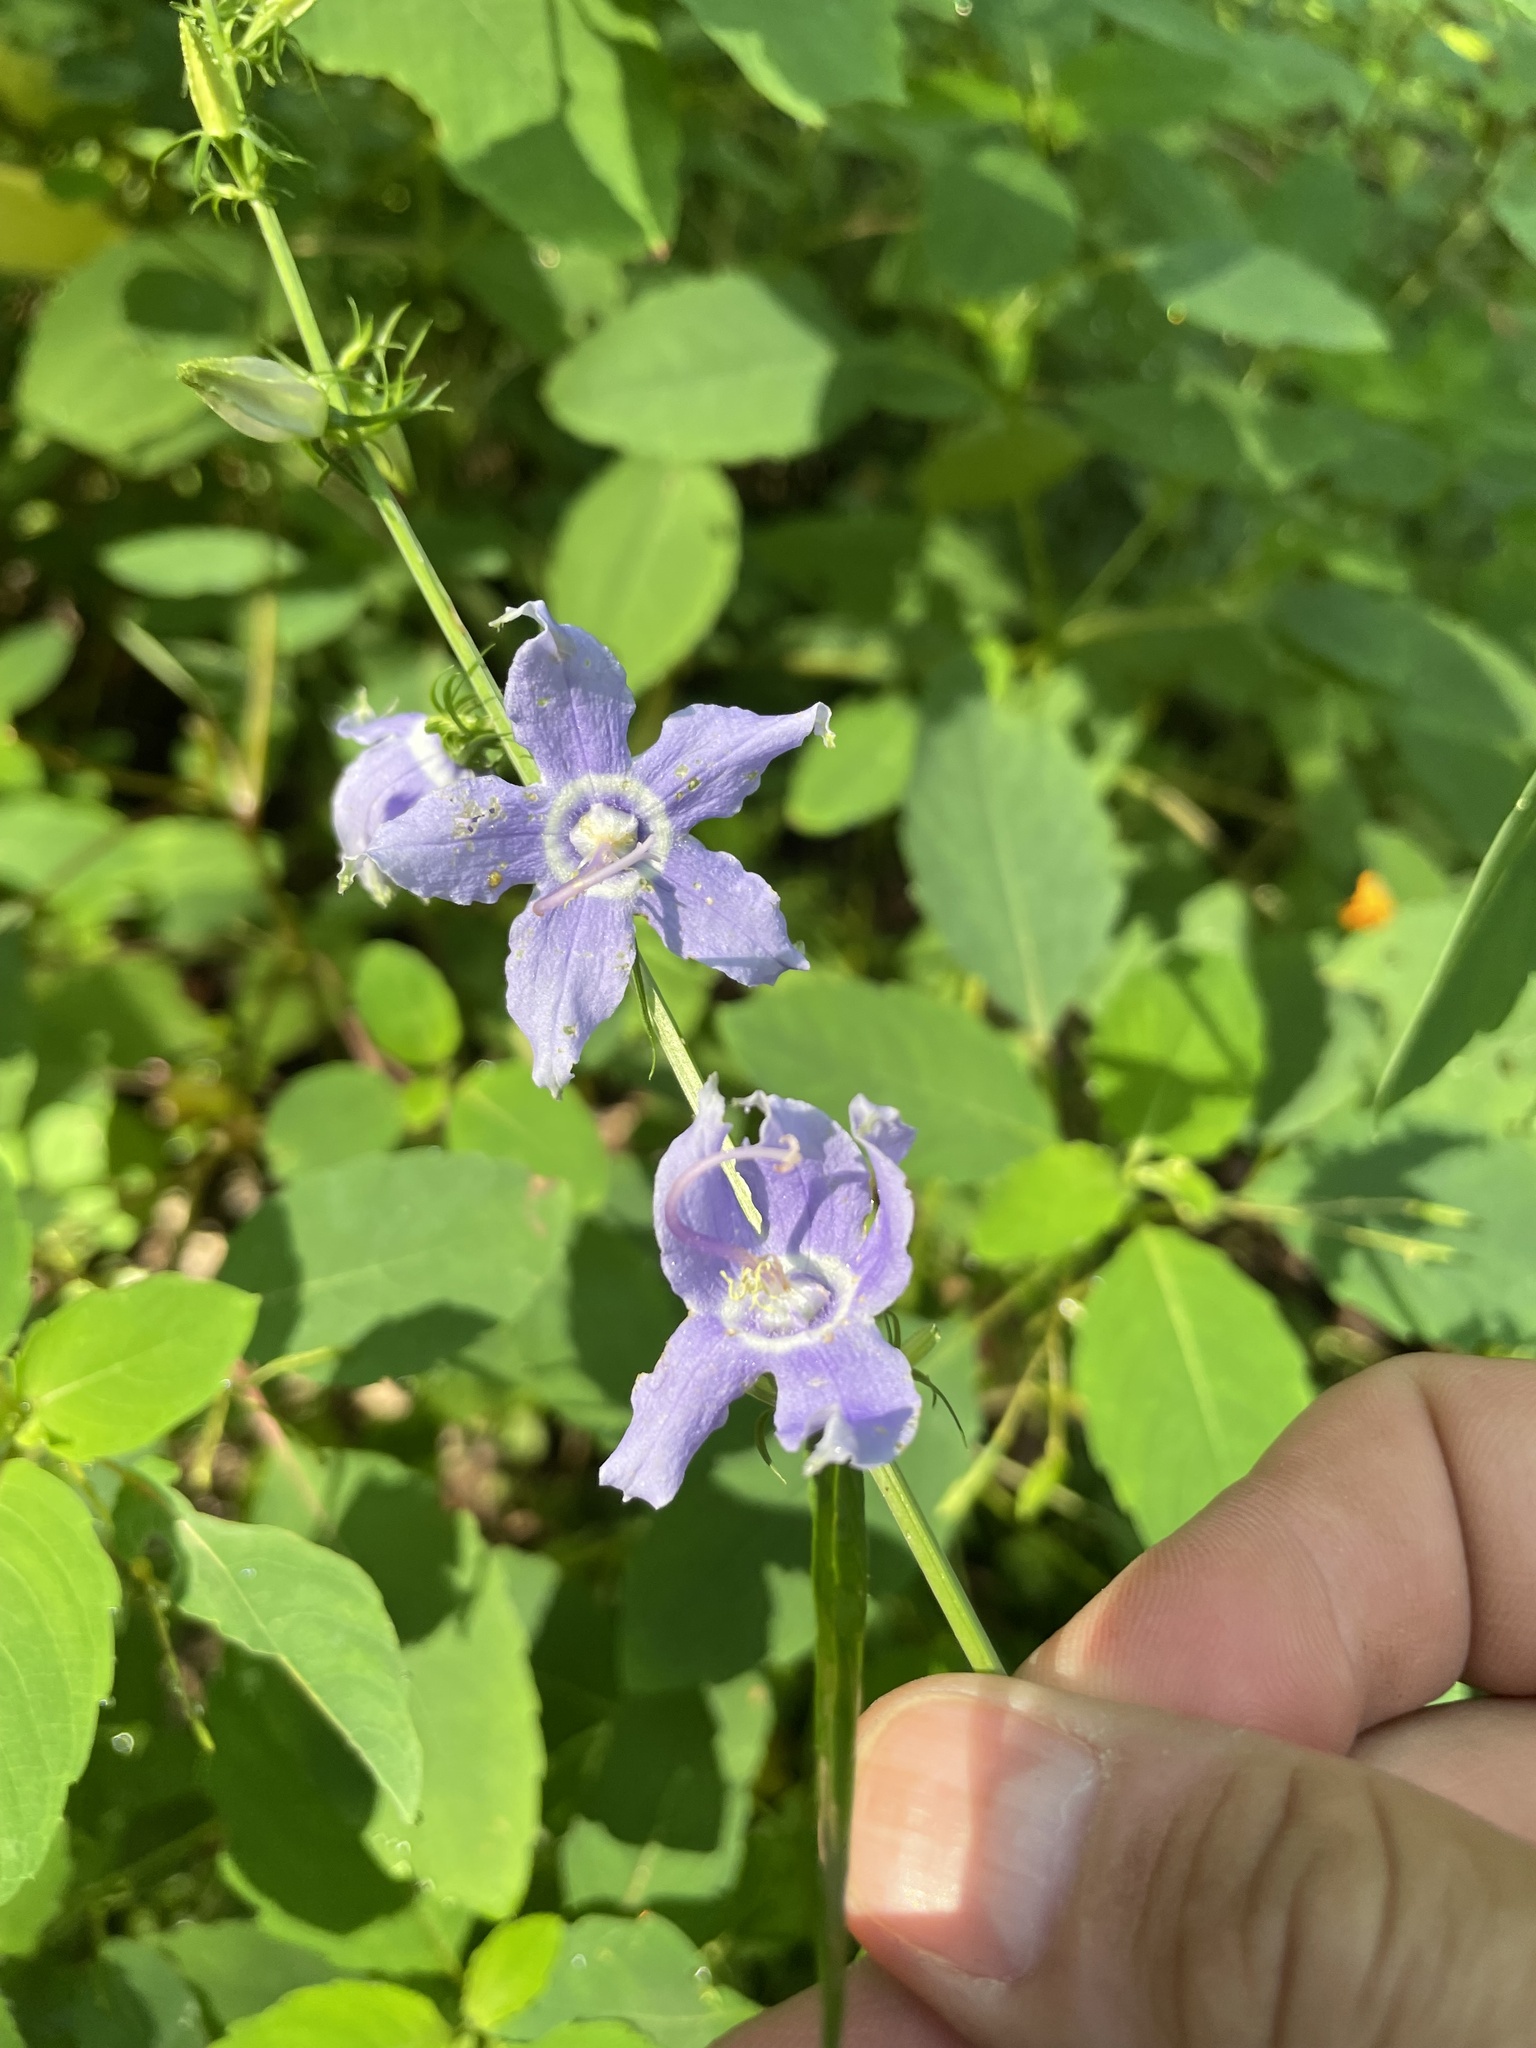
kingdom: Plantae
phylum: Tracheophyta
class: Magnoliopsida
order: Asterales
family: Campanulaceae
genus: Campanulastrum
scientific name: Campanulastrum americanum
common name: American bellflower
